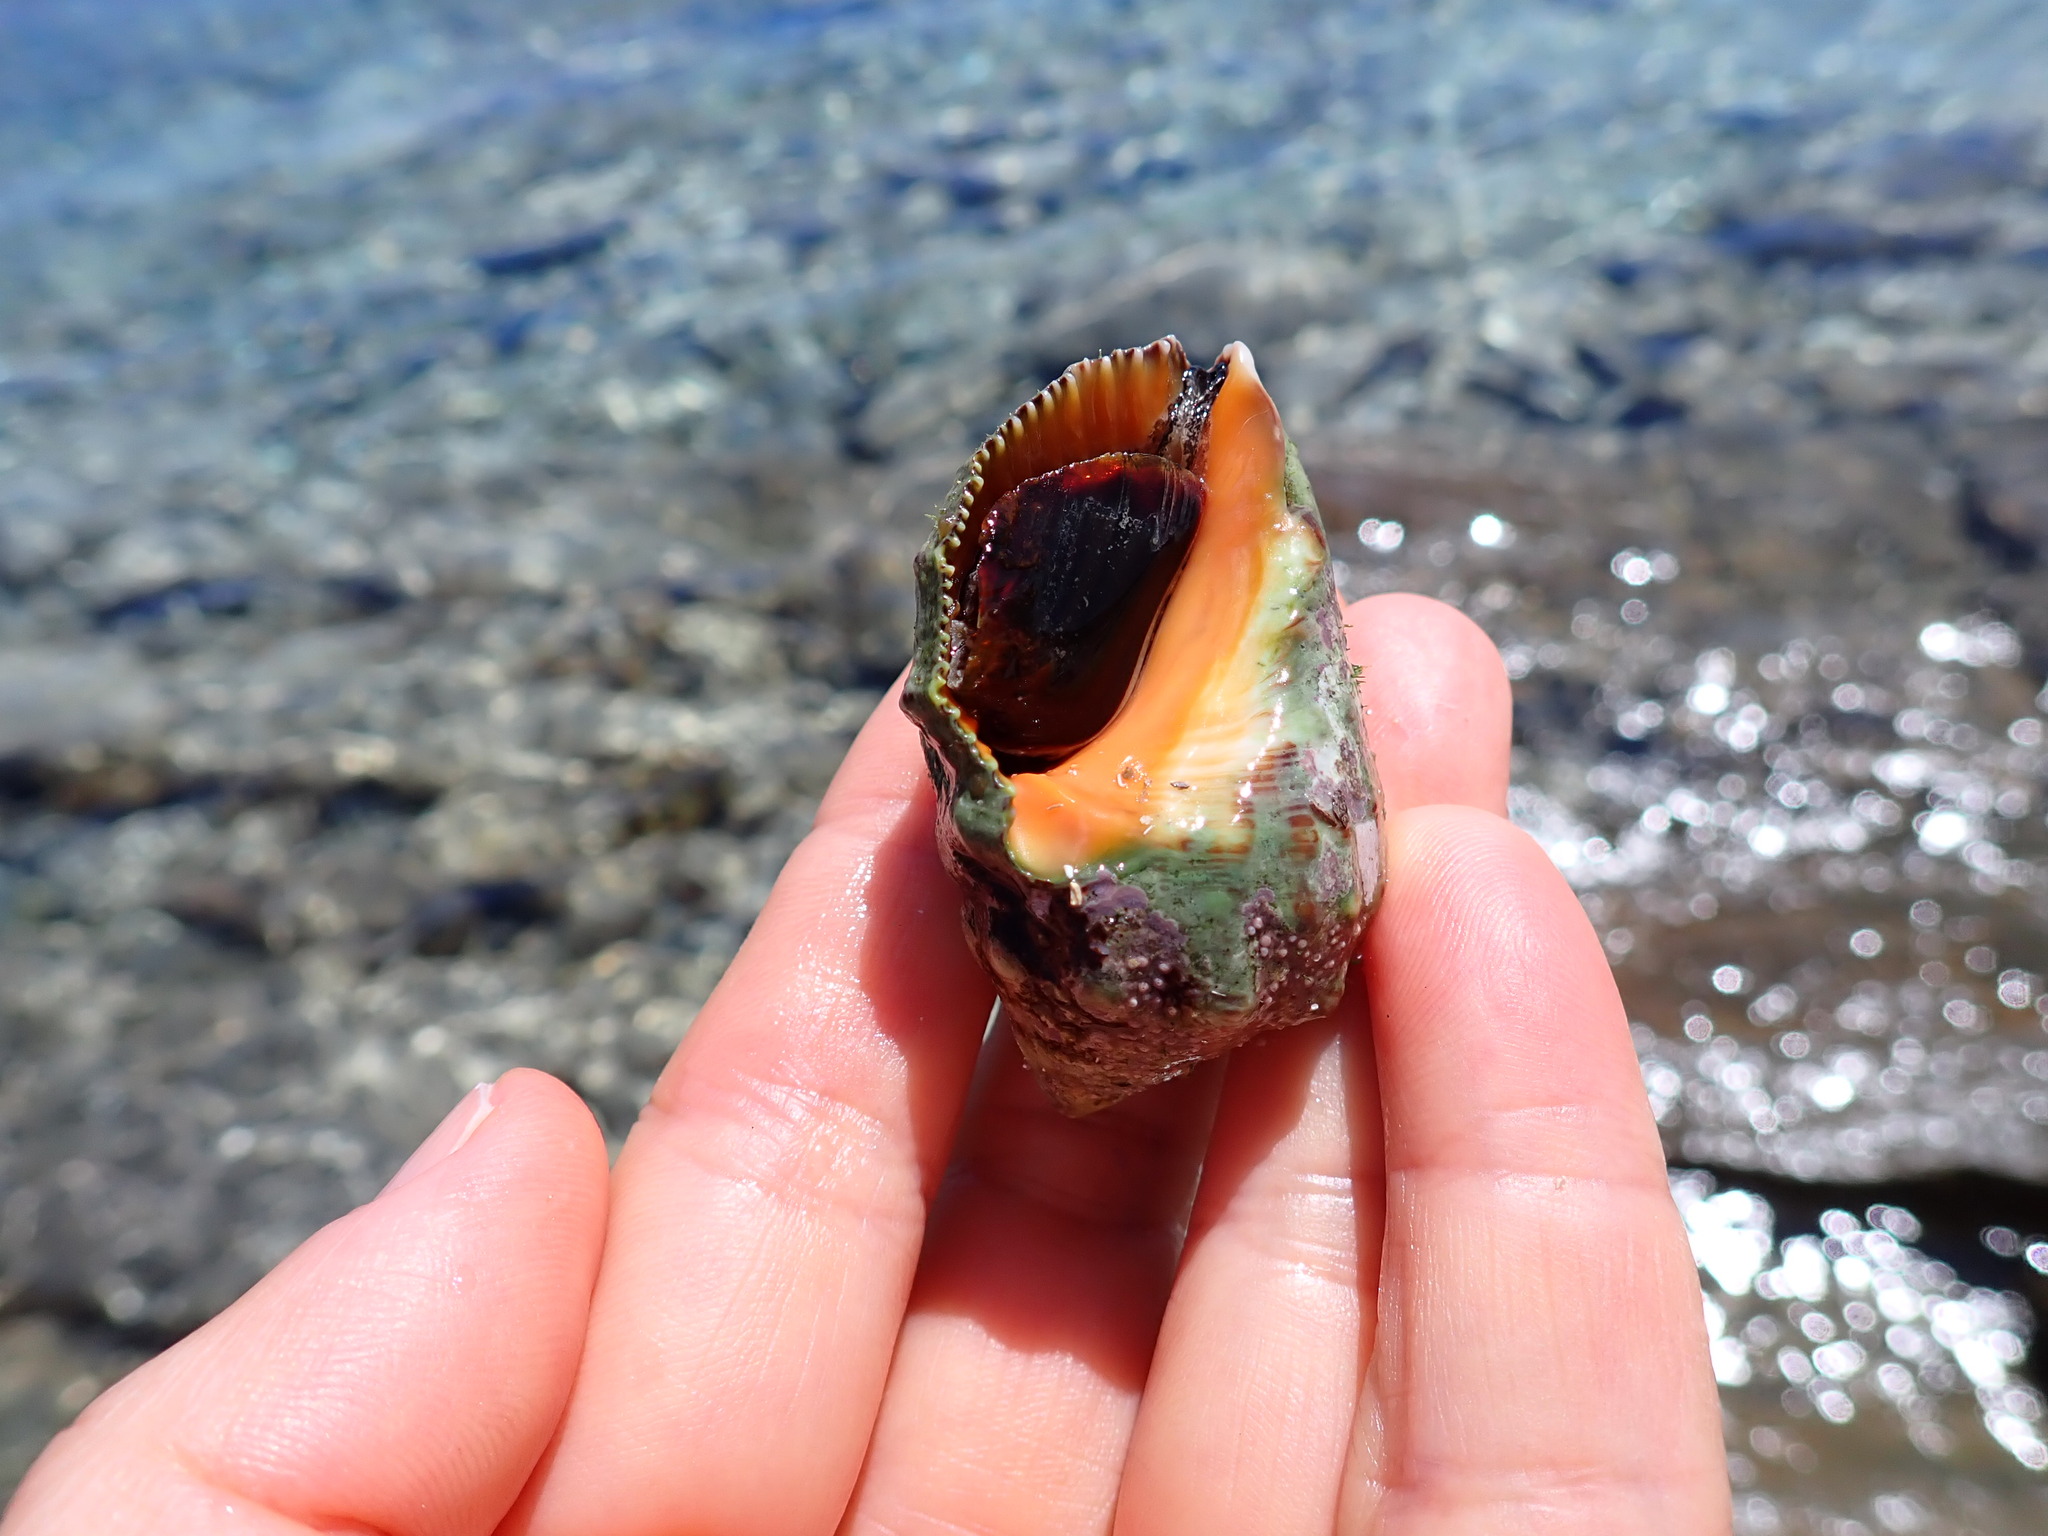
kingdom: Animalia
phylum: Mollusca
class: Gastropoda
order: Neogastropoda
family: Muricidae
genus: Stramonita
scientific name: Stramonita haemastoma
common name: Florida dog winkle
